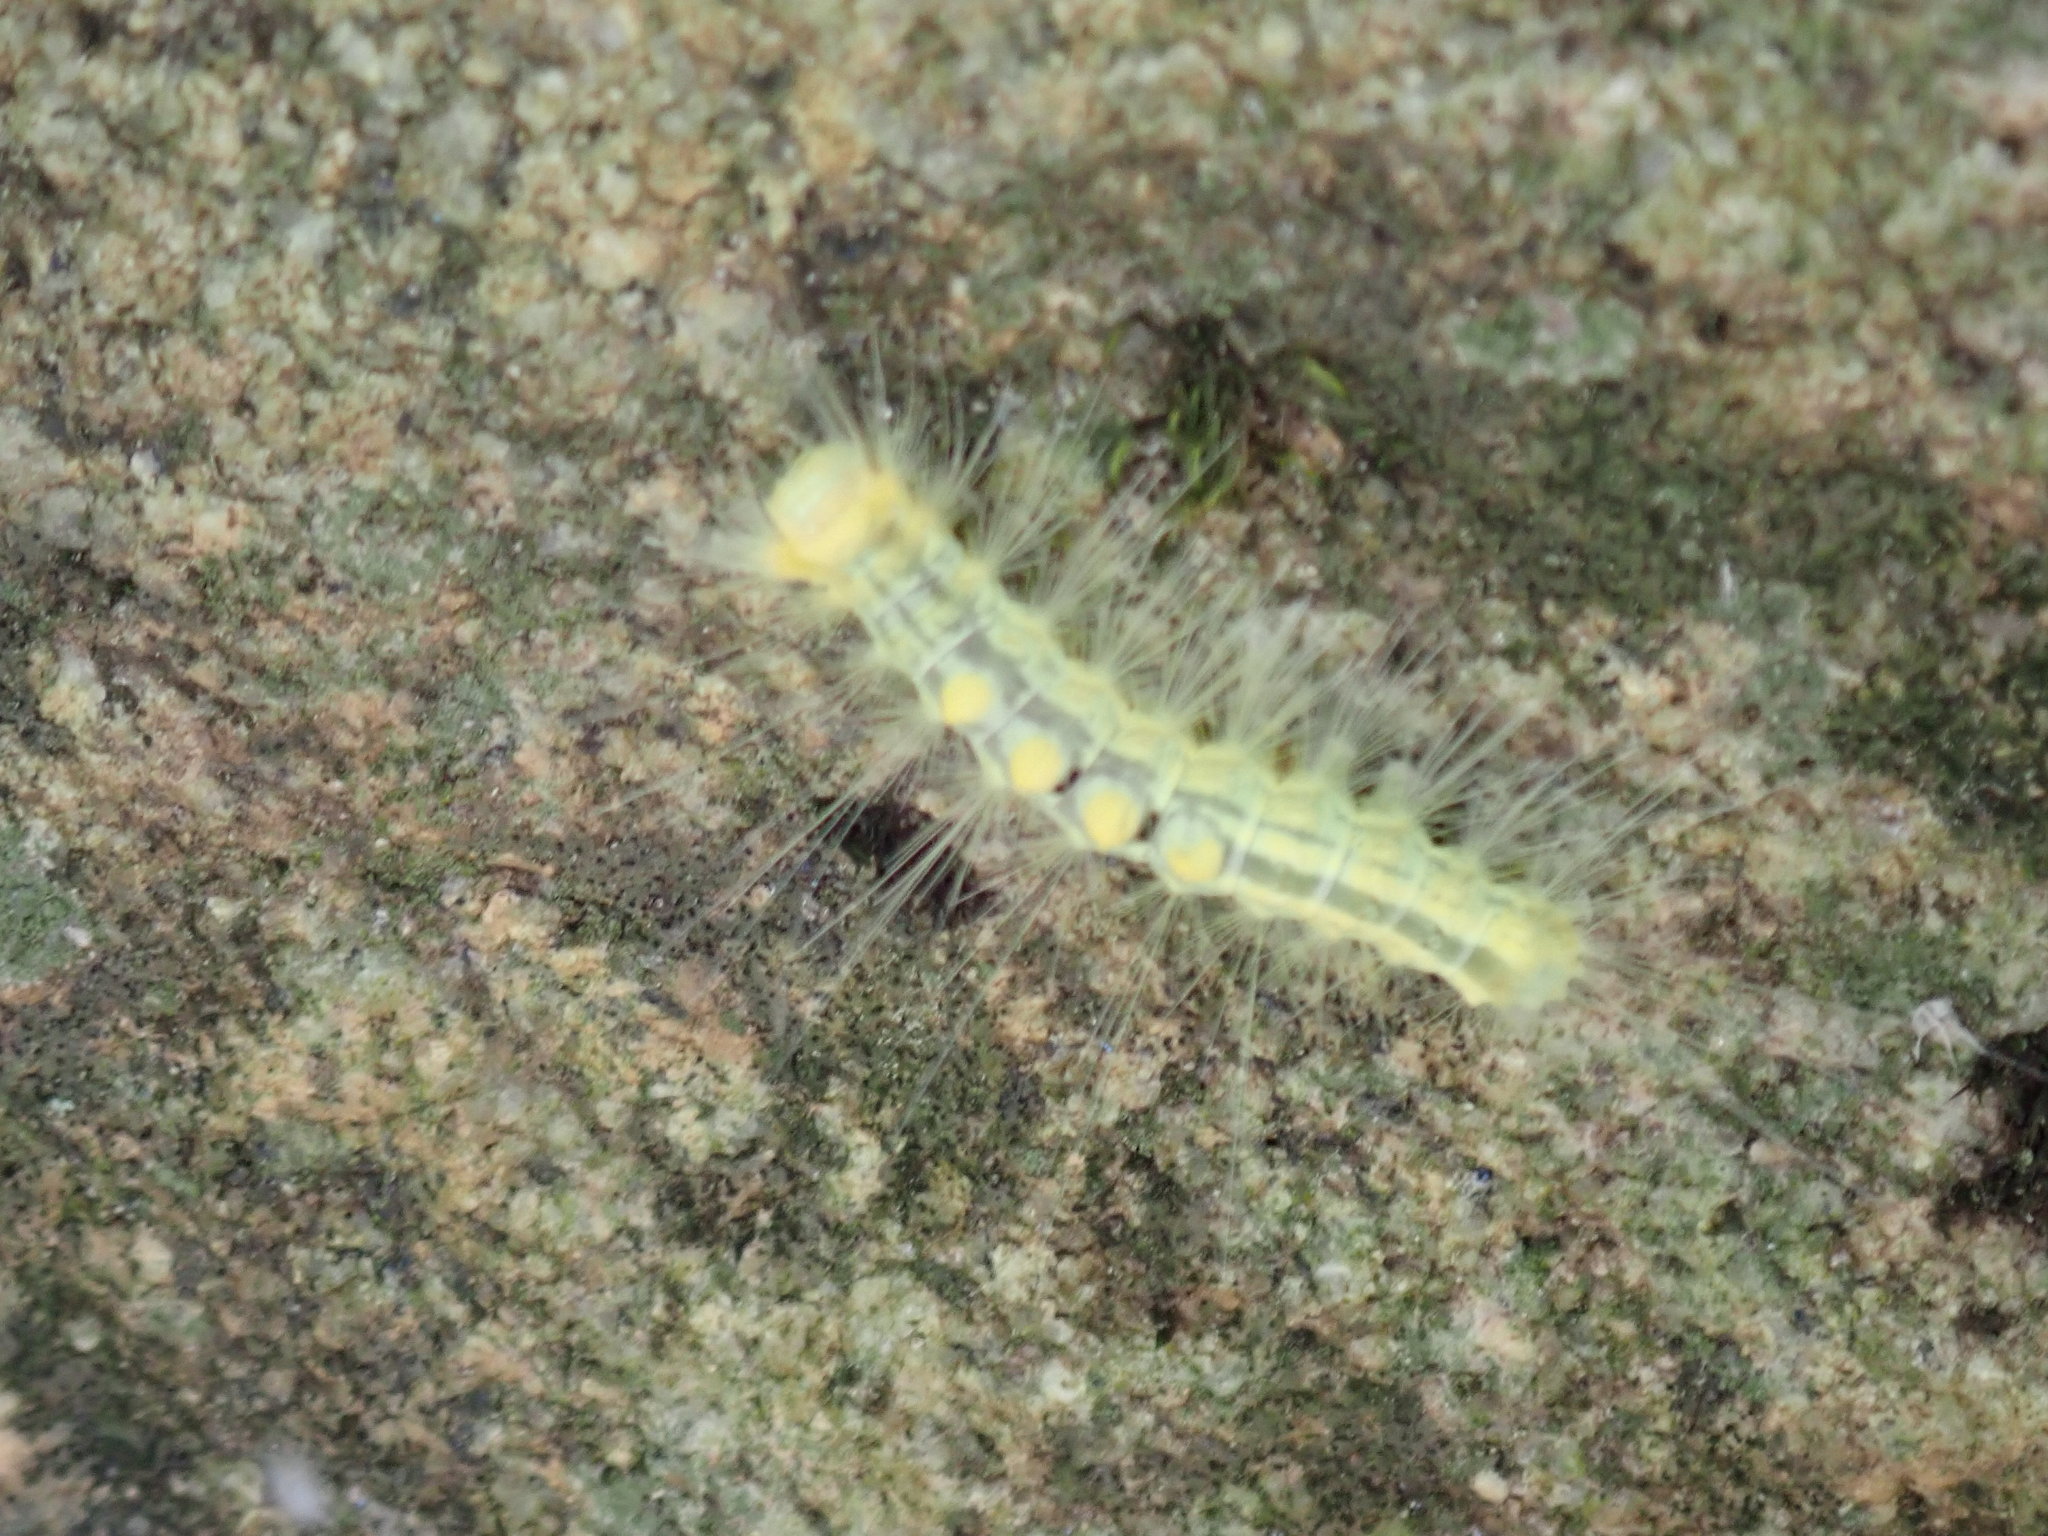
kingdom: Animalia
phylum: Arthropoda
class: Insecta
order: Lepidoptera
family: Erebidae
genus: Orgyia
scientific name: Orgyia definita
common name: Definite tussock moth
